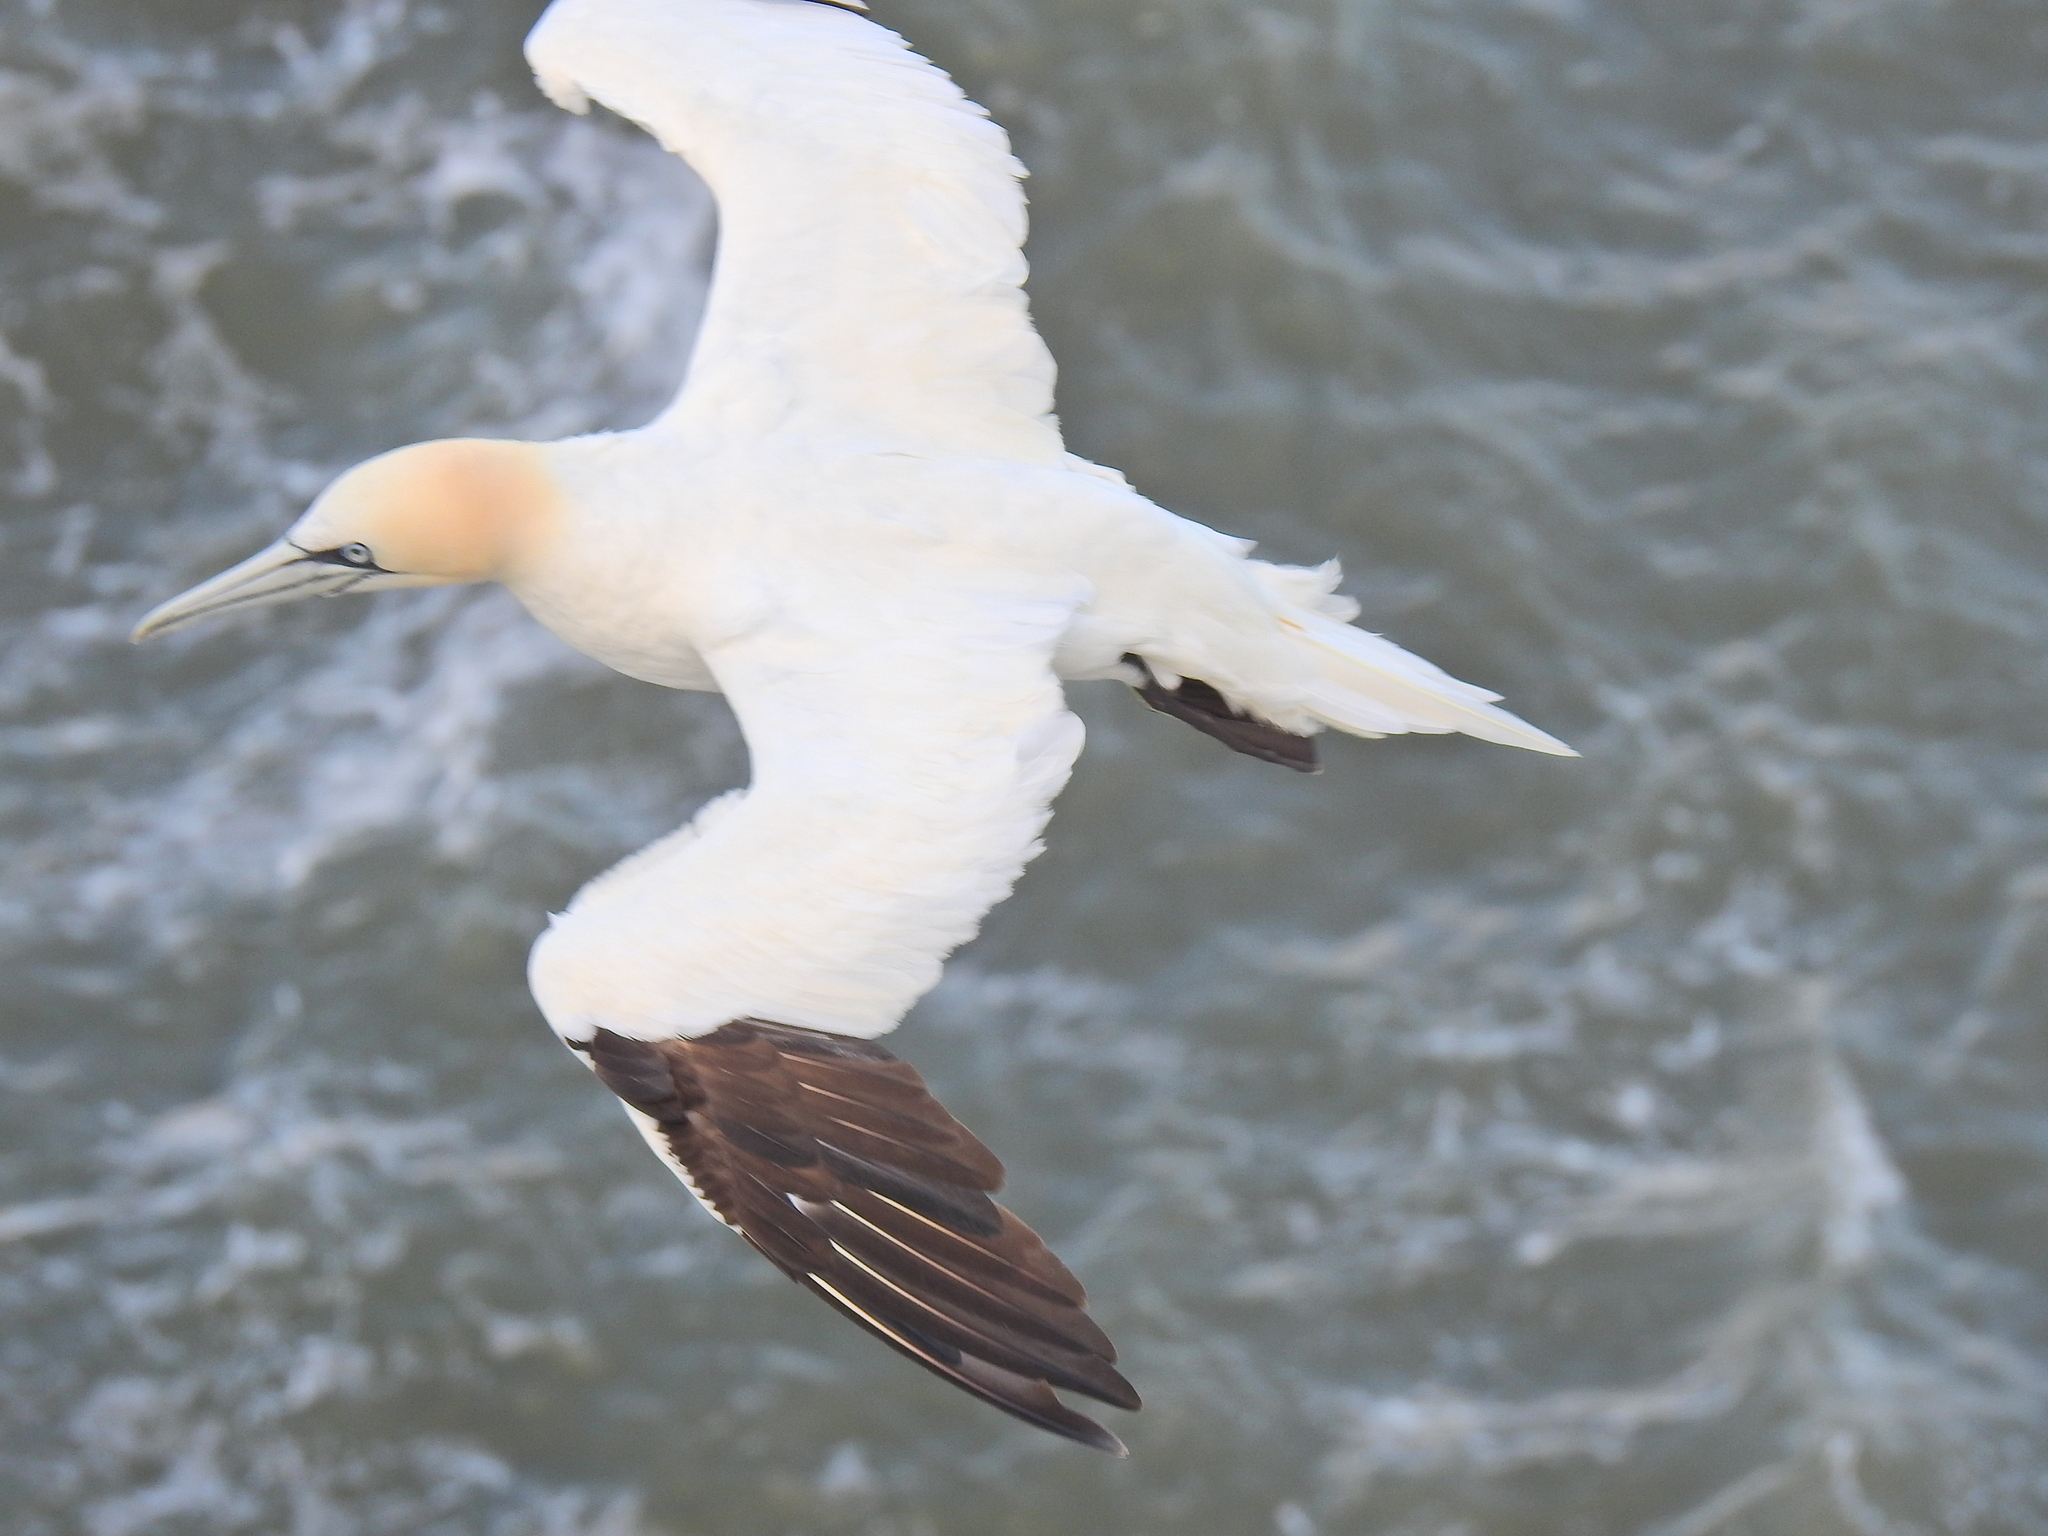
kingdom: Animalia
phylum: Chordata
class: Aves
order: Suliformes
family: Sulidae
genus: Morus
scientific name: Morus bassanus
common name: Northern gannet
